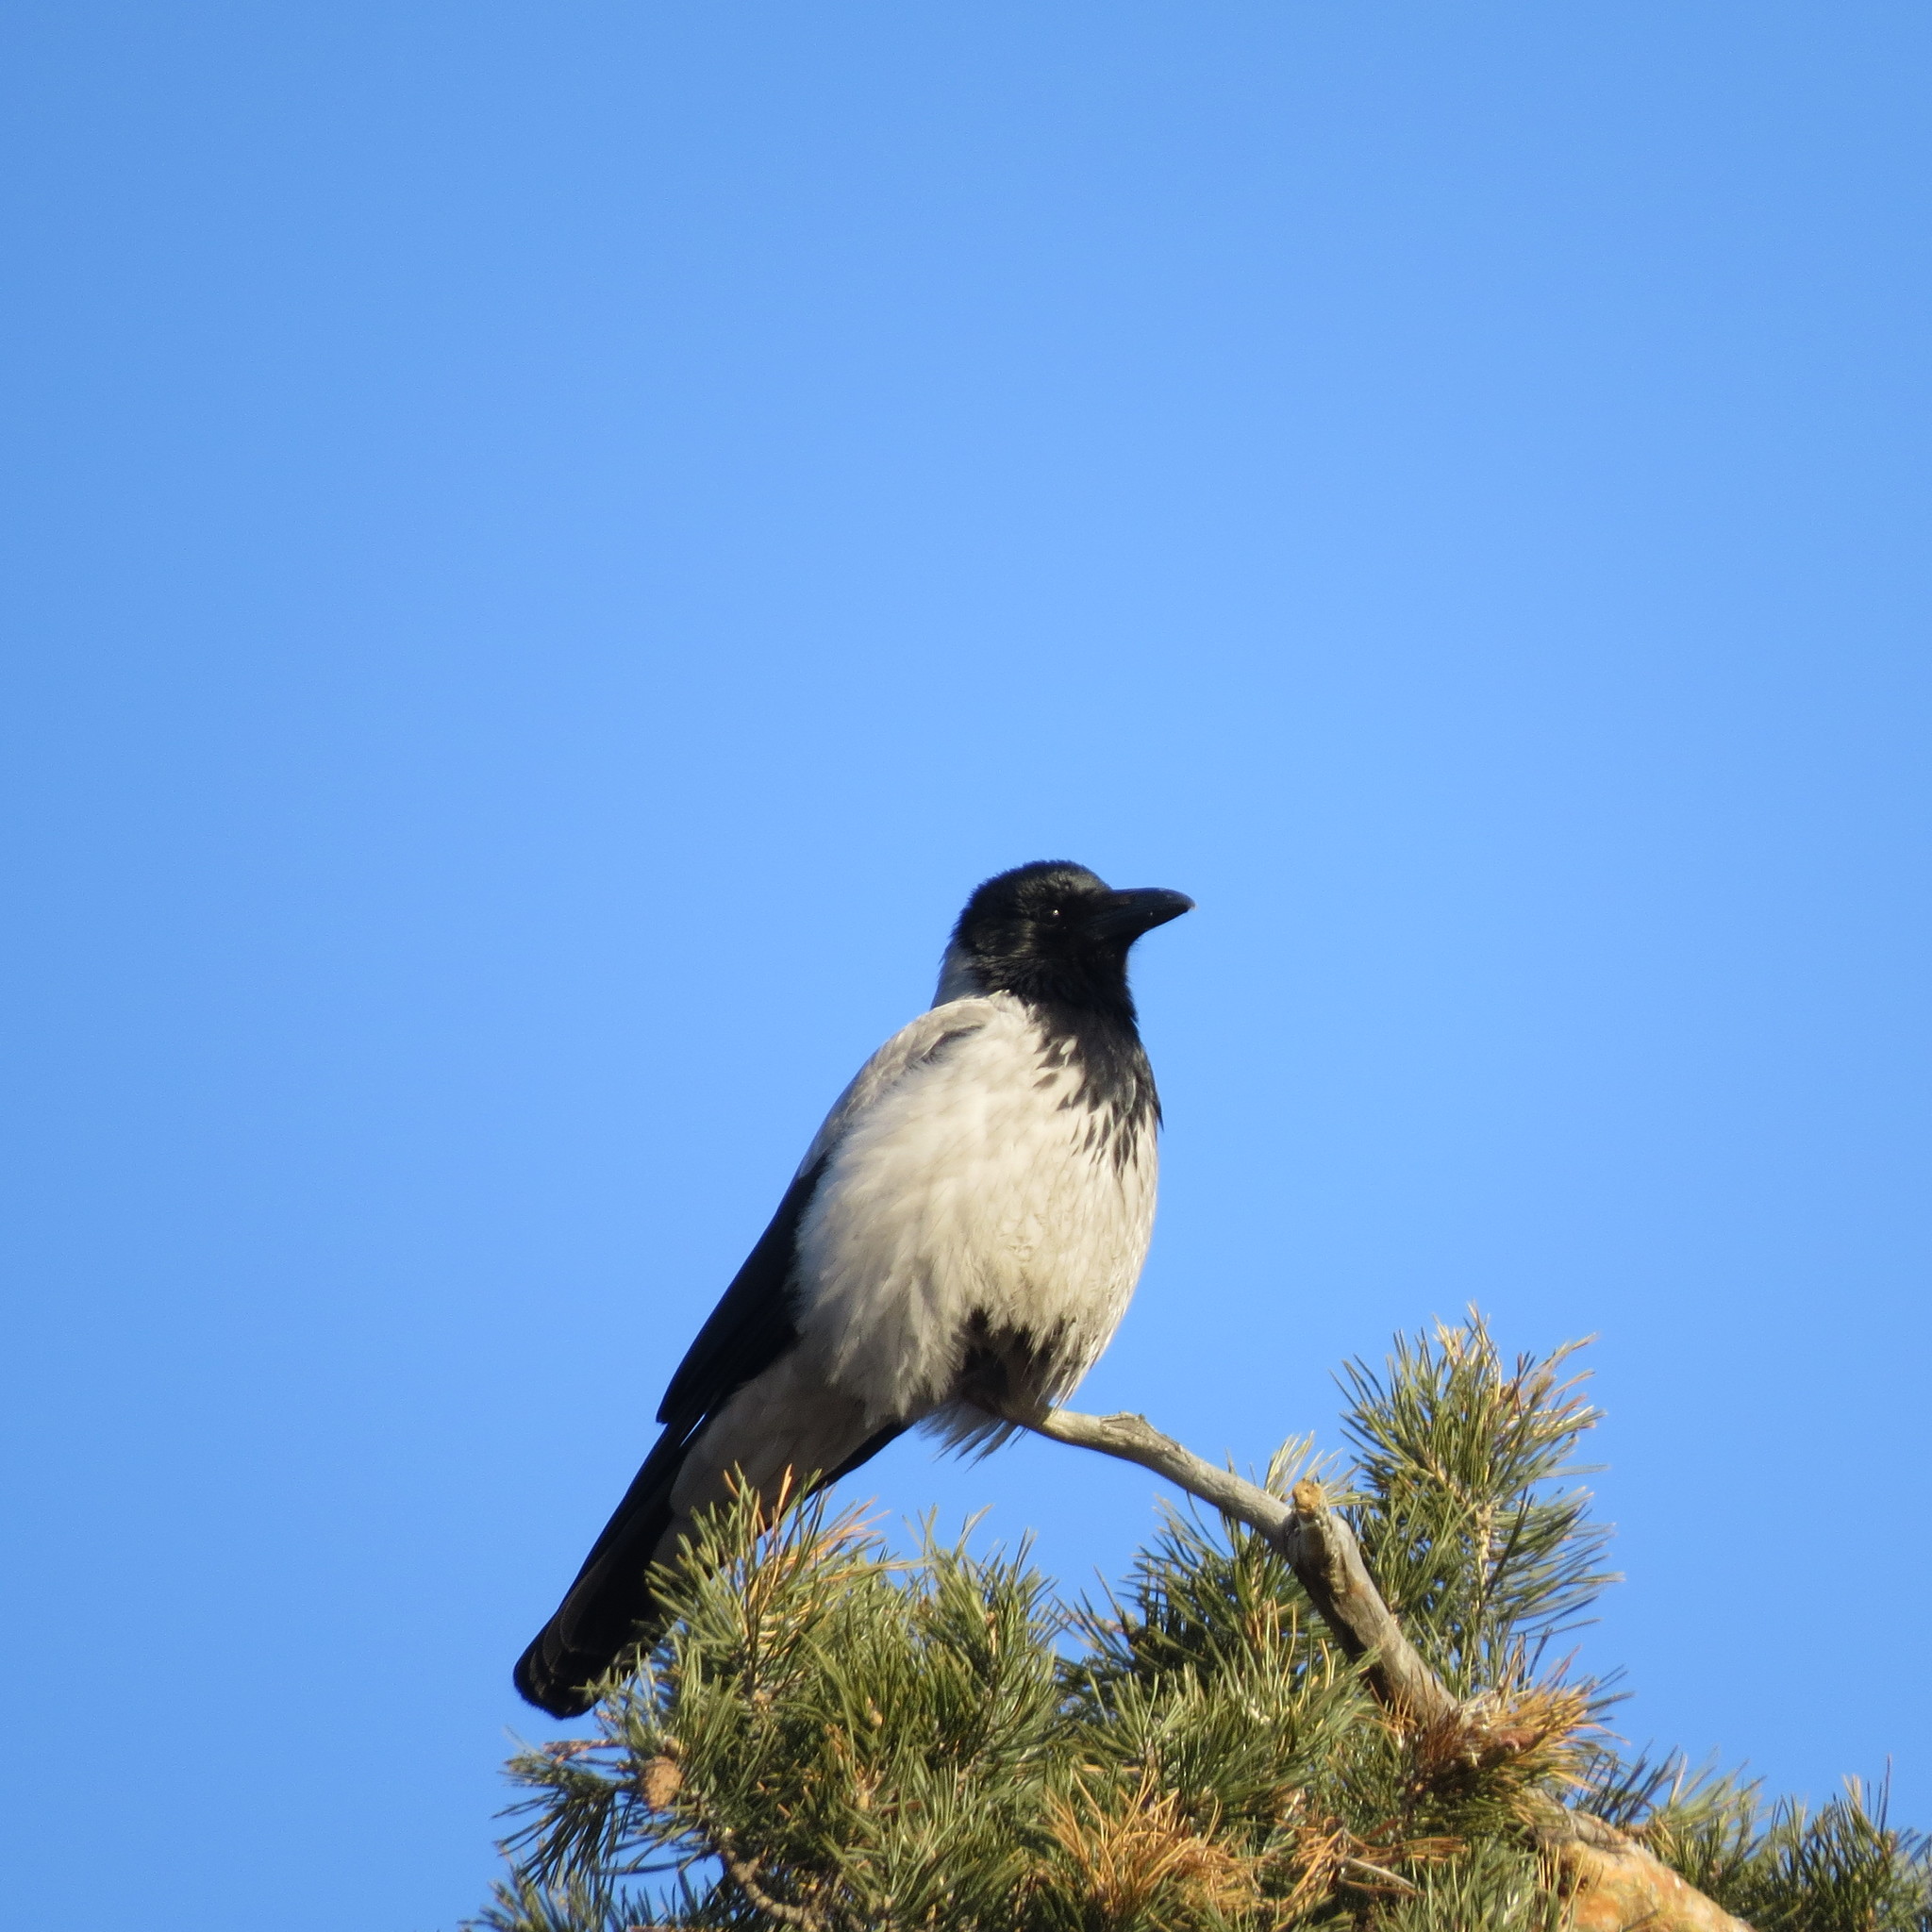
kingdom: Animalia
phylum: Chordata
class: Aves
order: Passeriformes
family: Corvidae
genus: Corvus
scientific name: Corvus cornix
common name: Hooded crow
